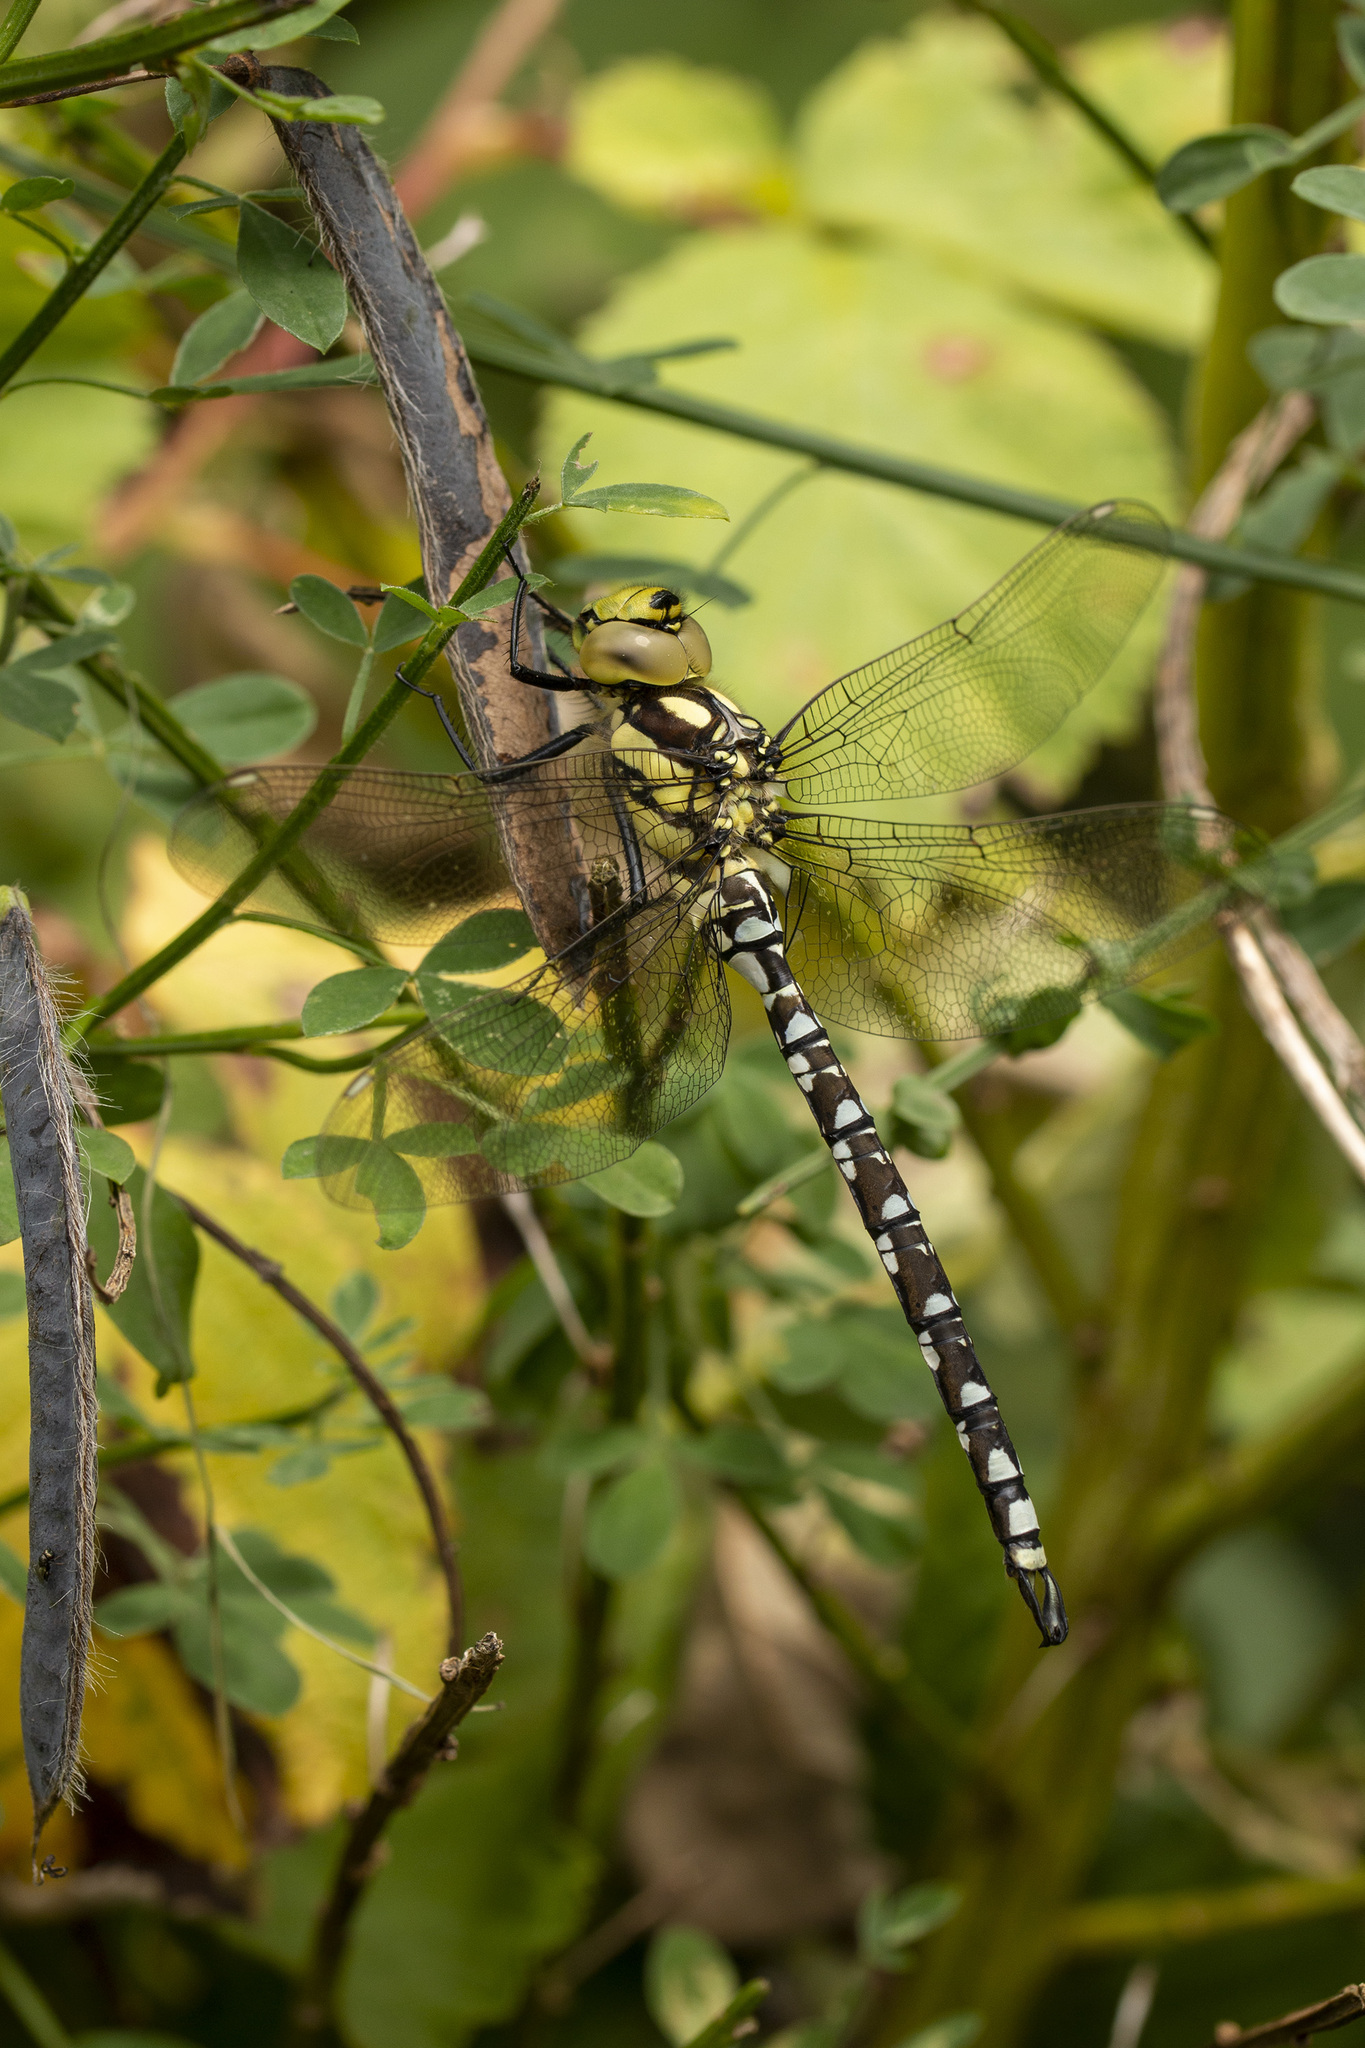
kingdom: Animalia
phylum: Arthropoda
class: Insecta
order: Odonata
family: Aeshnidae
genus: Aeshna
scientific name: Aeshna cyanea
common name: Southern hawker
